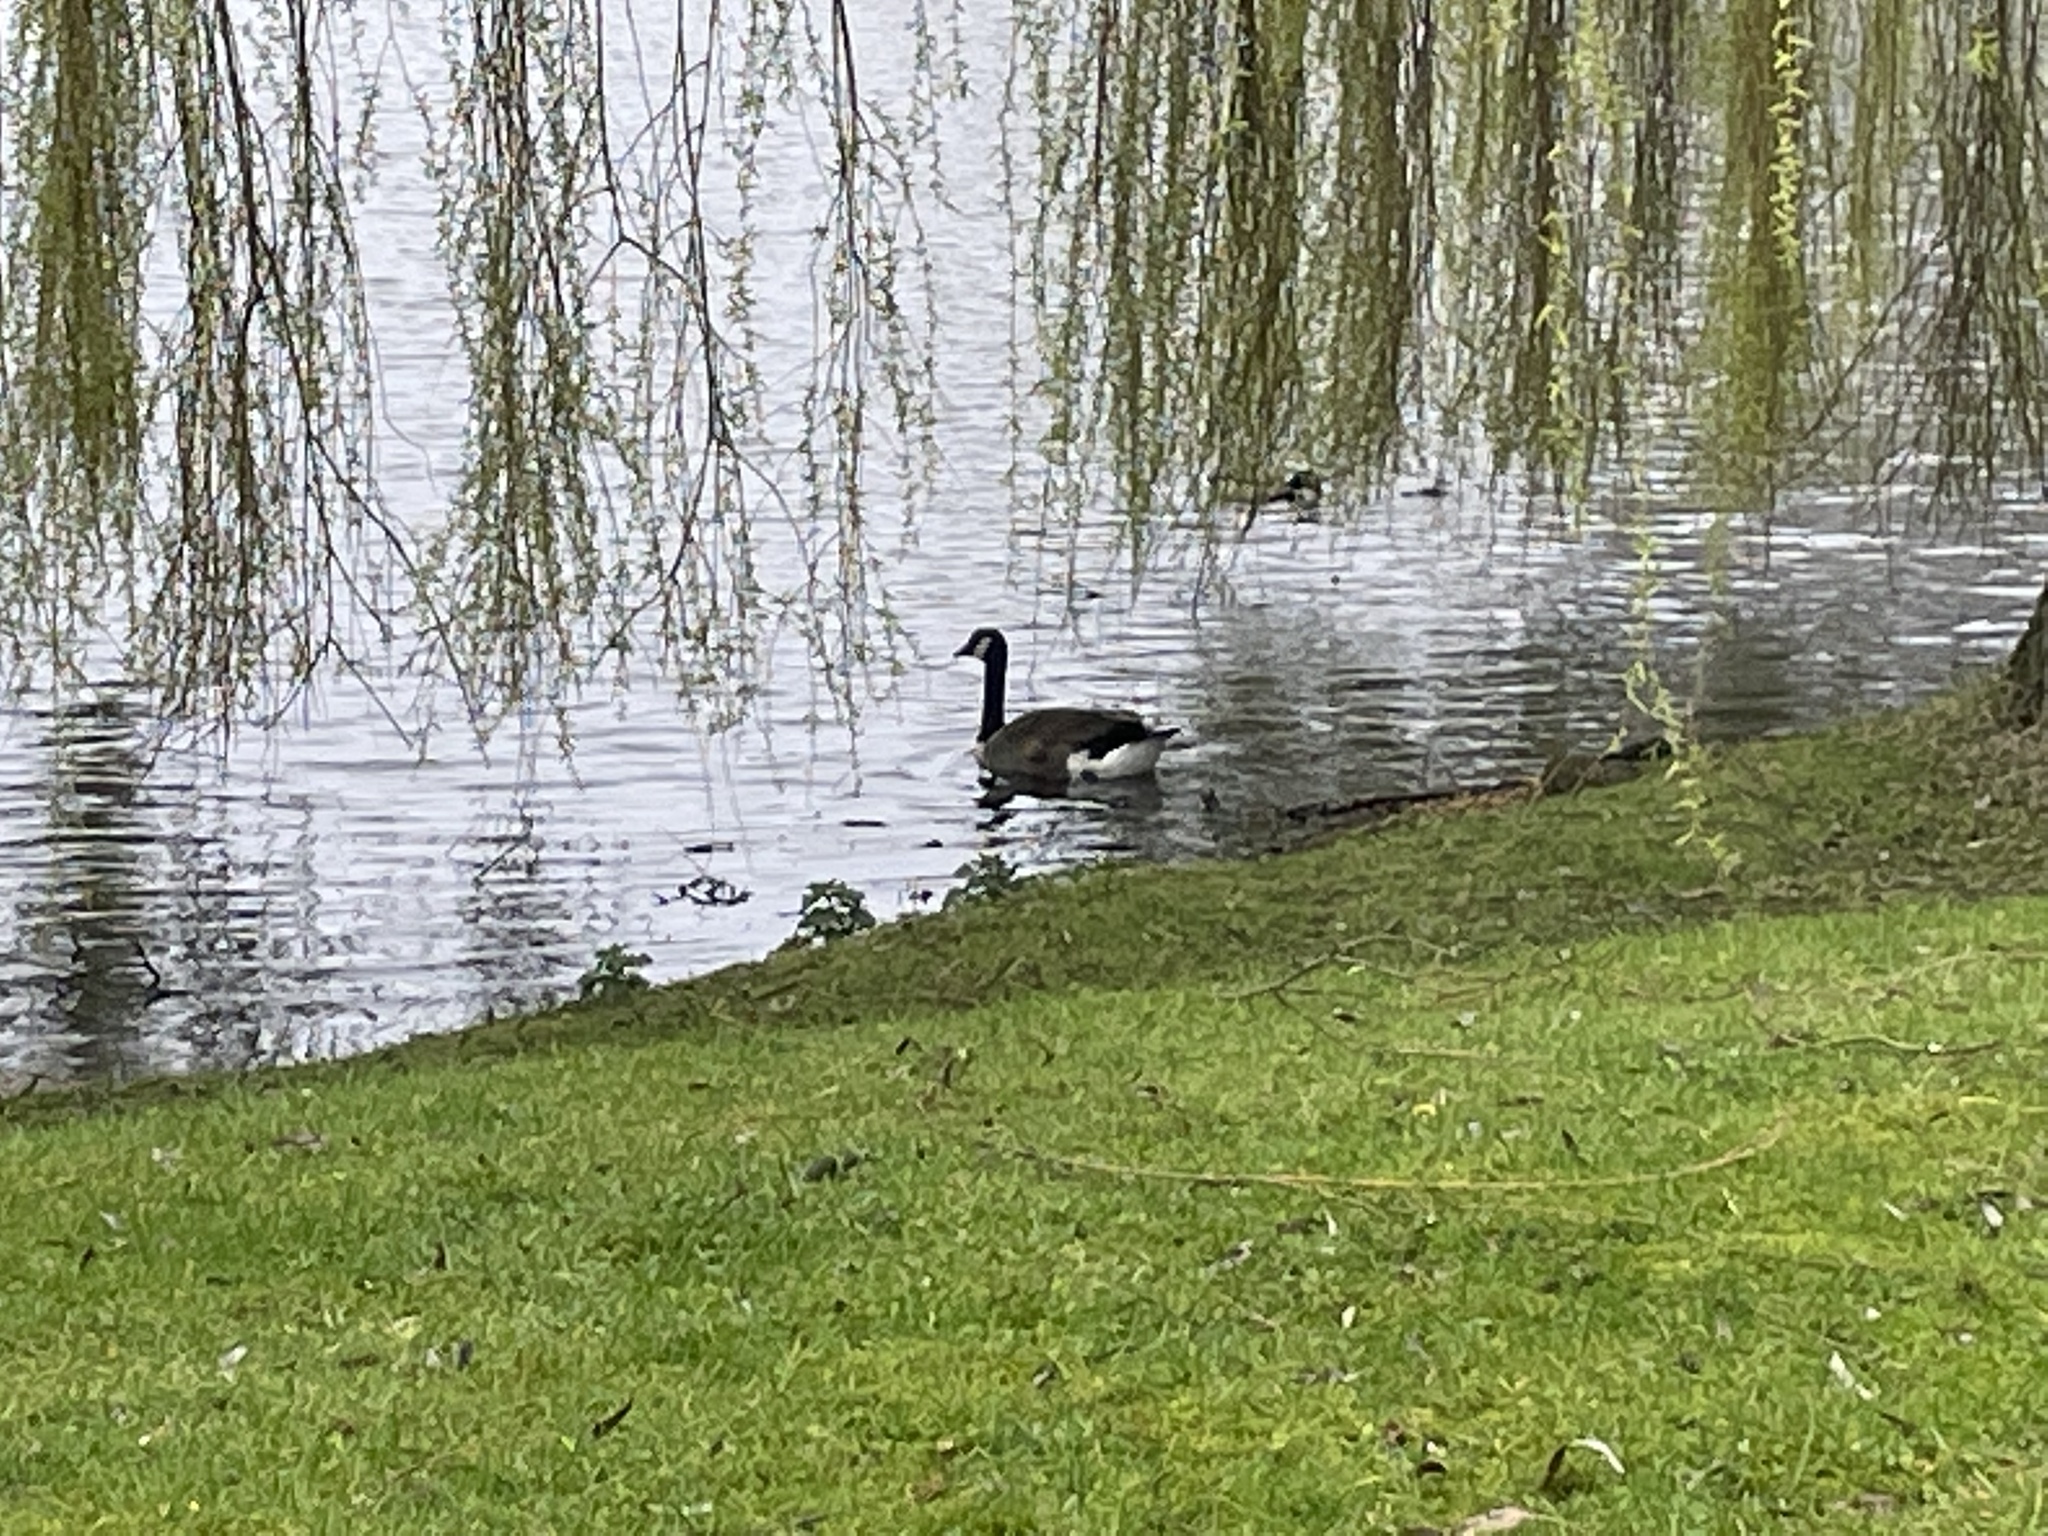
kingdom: Animalia
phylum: Chordata
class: Aves
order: Anseriformes
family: Anatidae
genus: Branta
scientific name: Branta canadensis
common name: Canada goose
